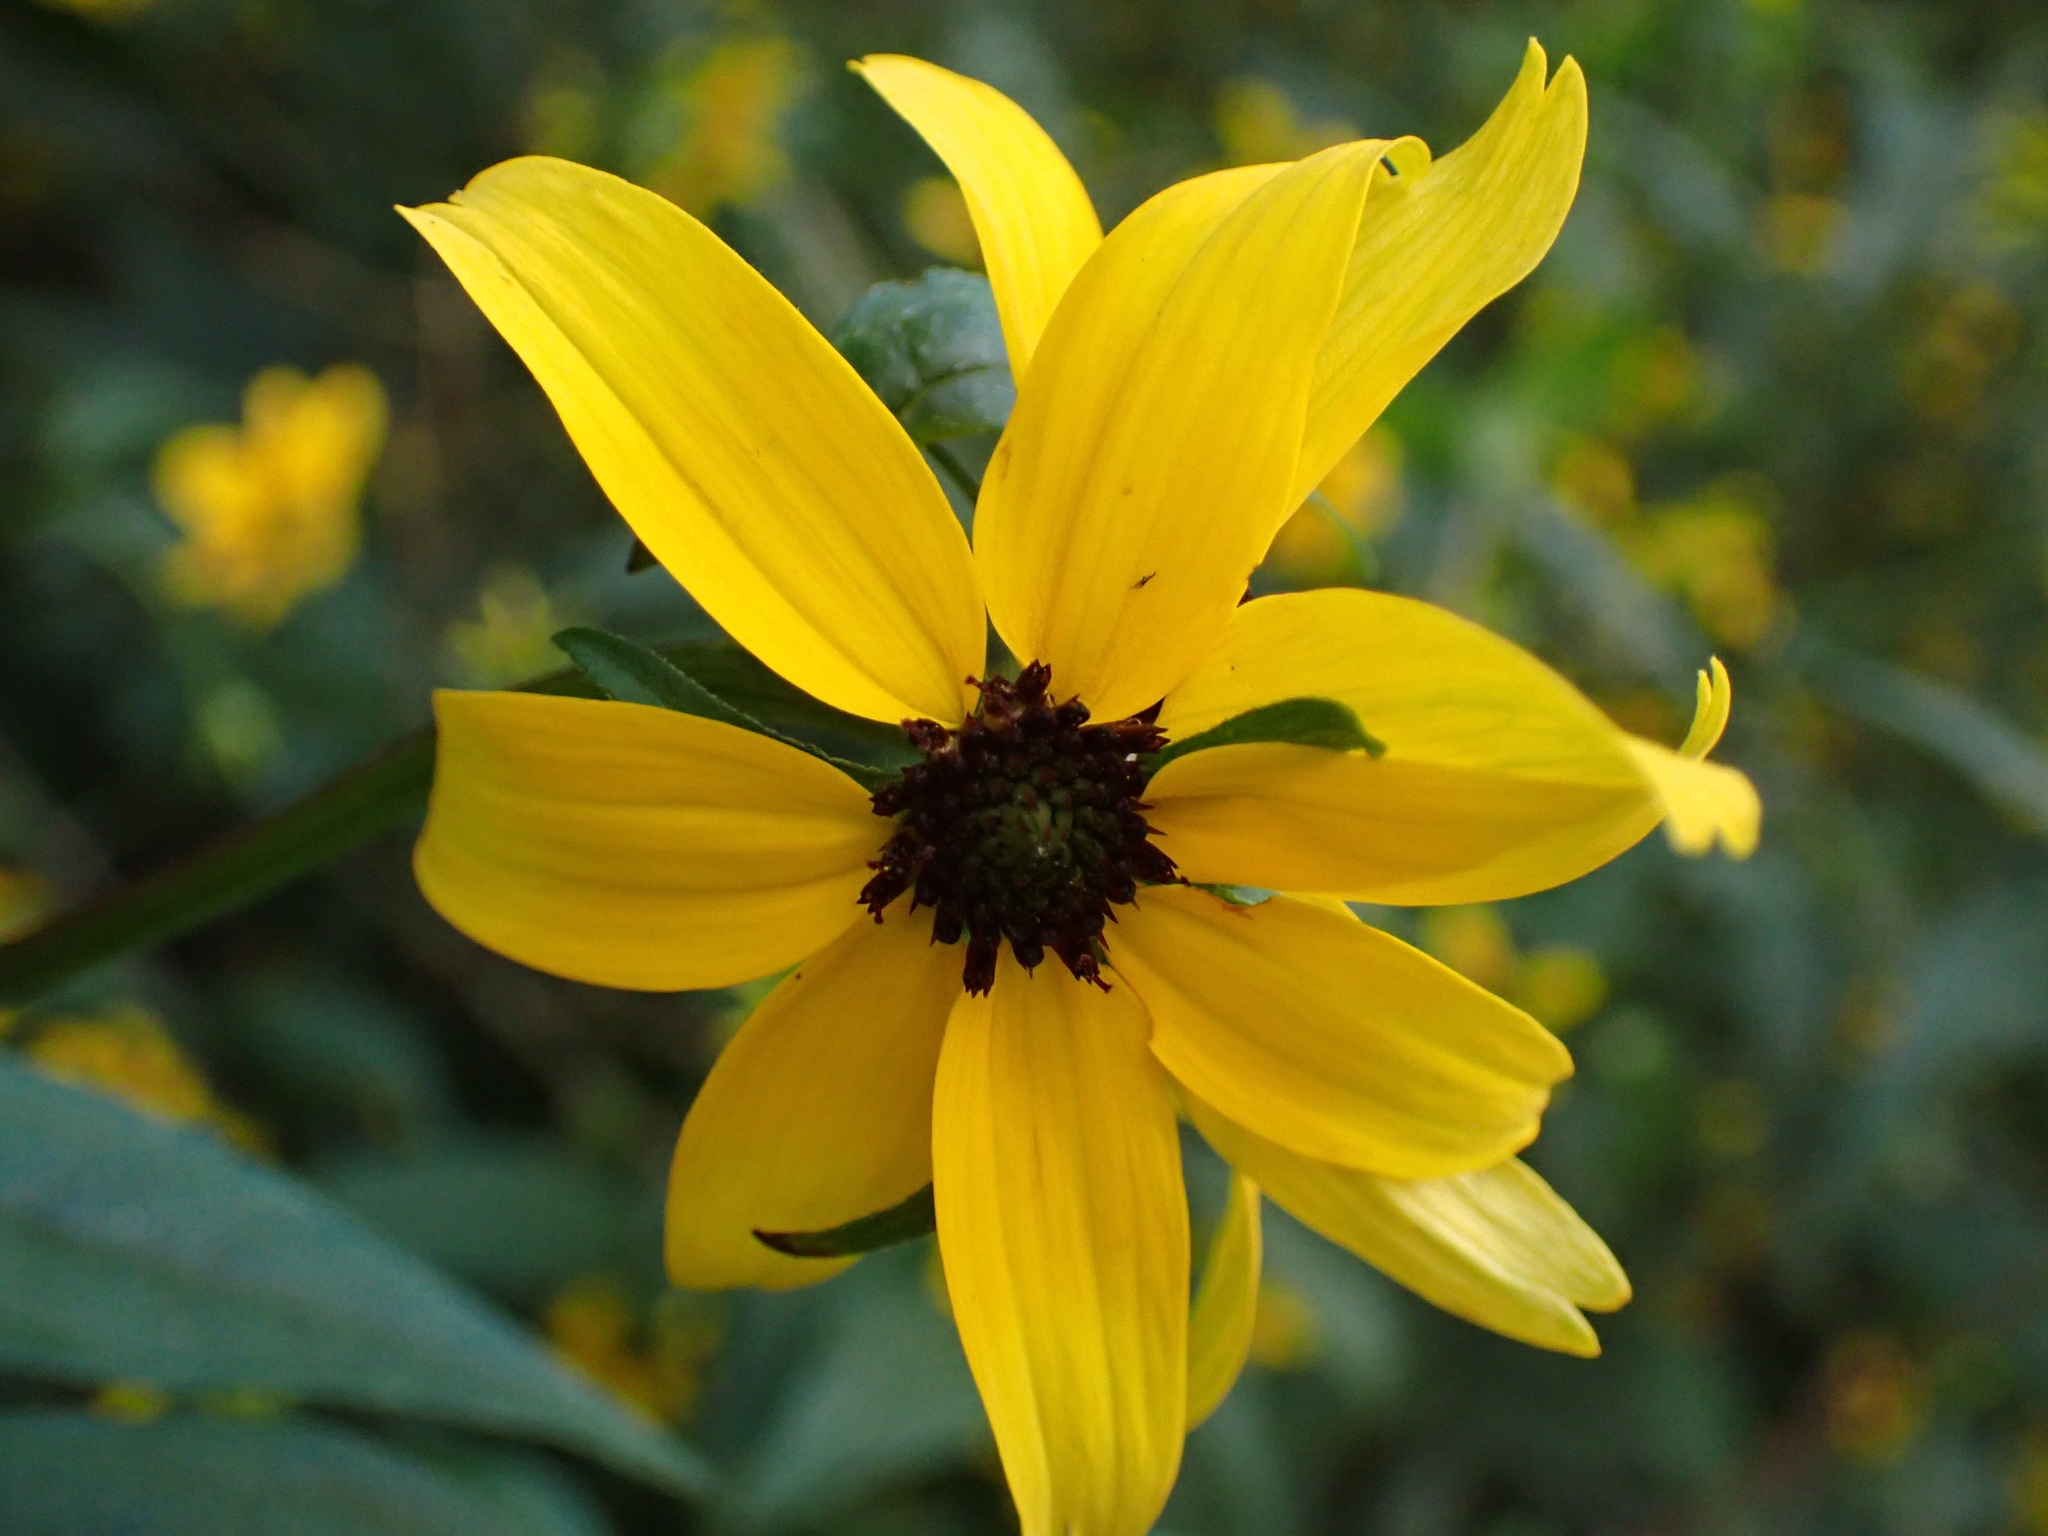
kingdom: Plantae
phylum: Tracheophyta
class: Magnoliopsida
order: Asterales
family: Asteraceae
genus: Rudbeckia
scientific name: Rudbeckia triloba
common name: Thin-leaved coneflower
